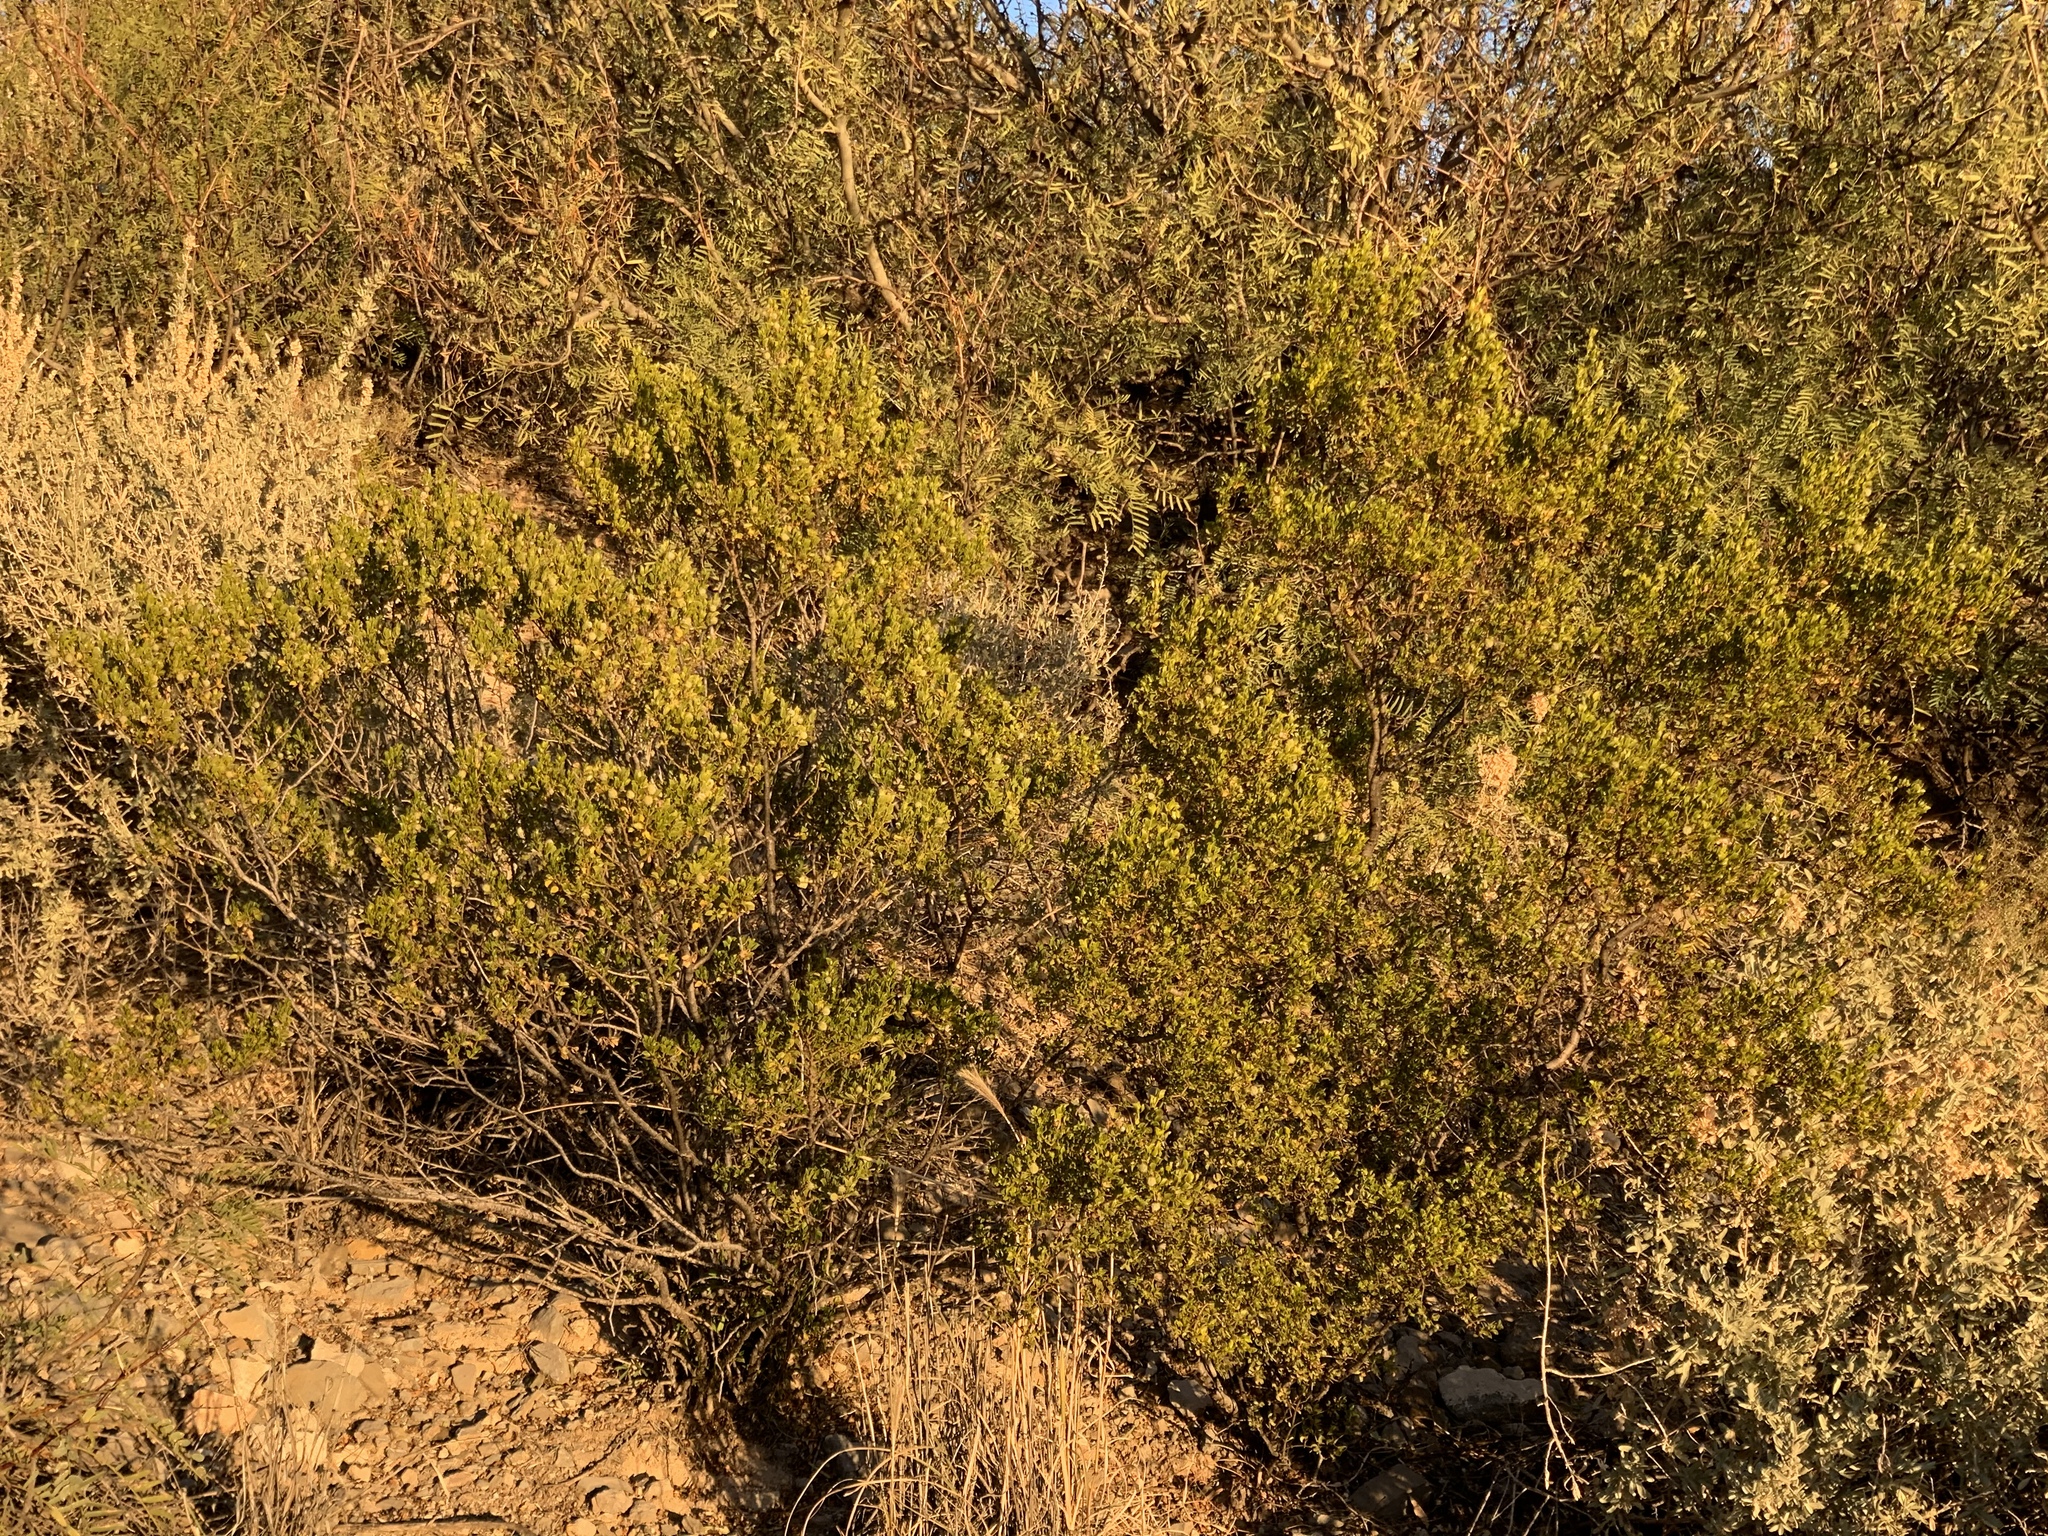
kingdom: Plantae
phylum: Tracheophyta
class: Magnoliopsida
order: Zygophyllales
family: Zygophyllaceae
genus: Larrea
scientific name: Larrea tridentata
